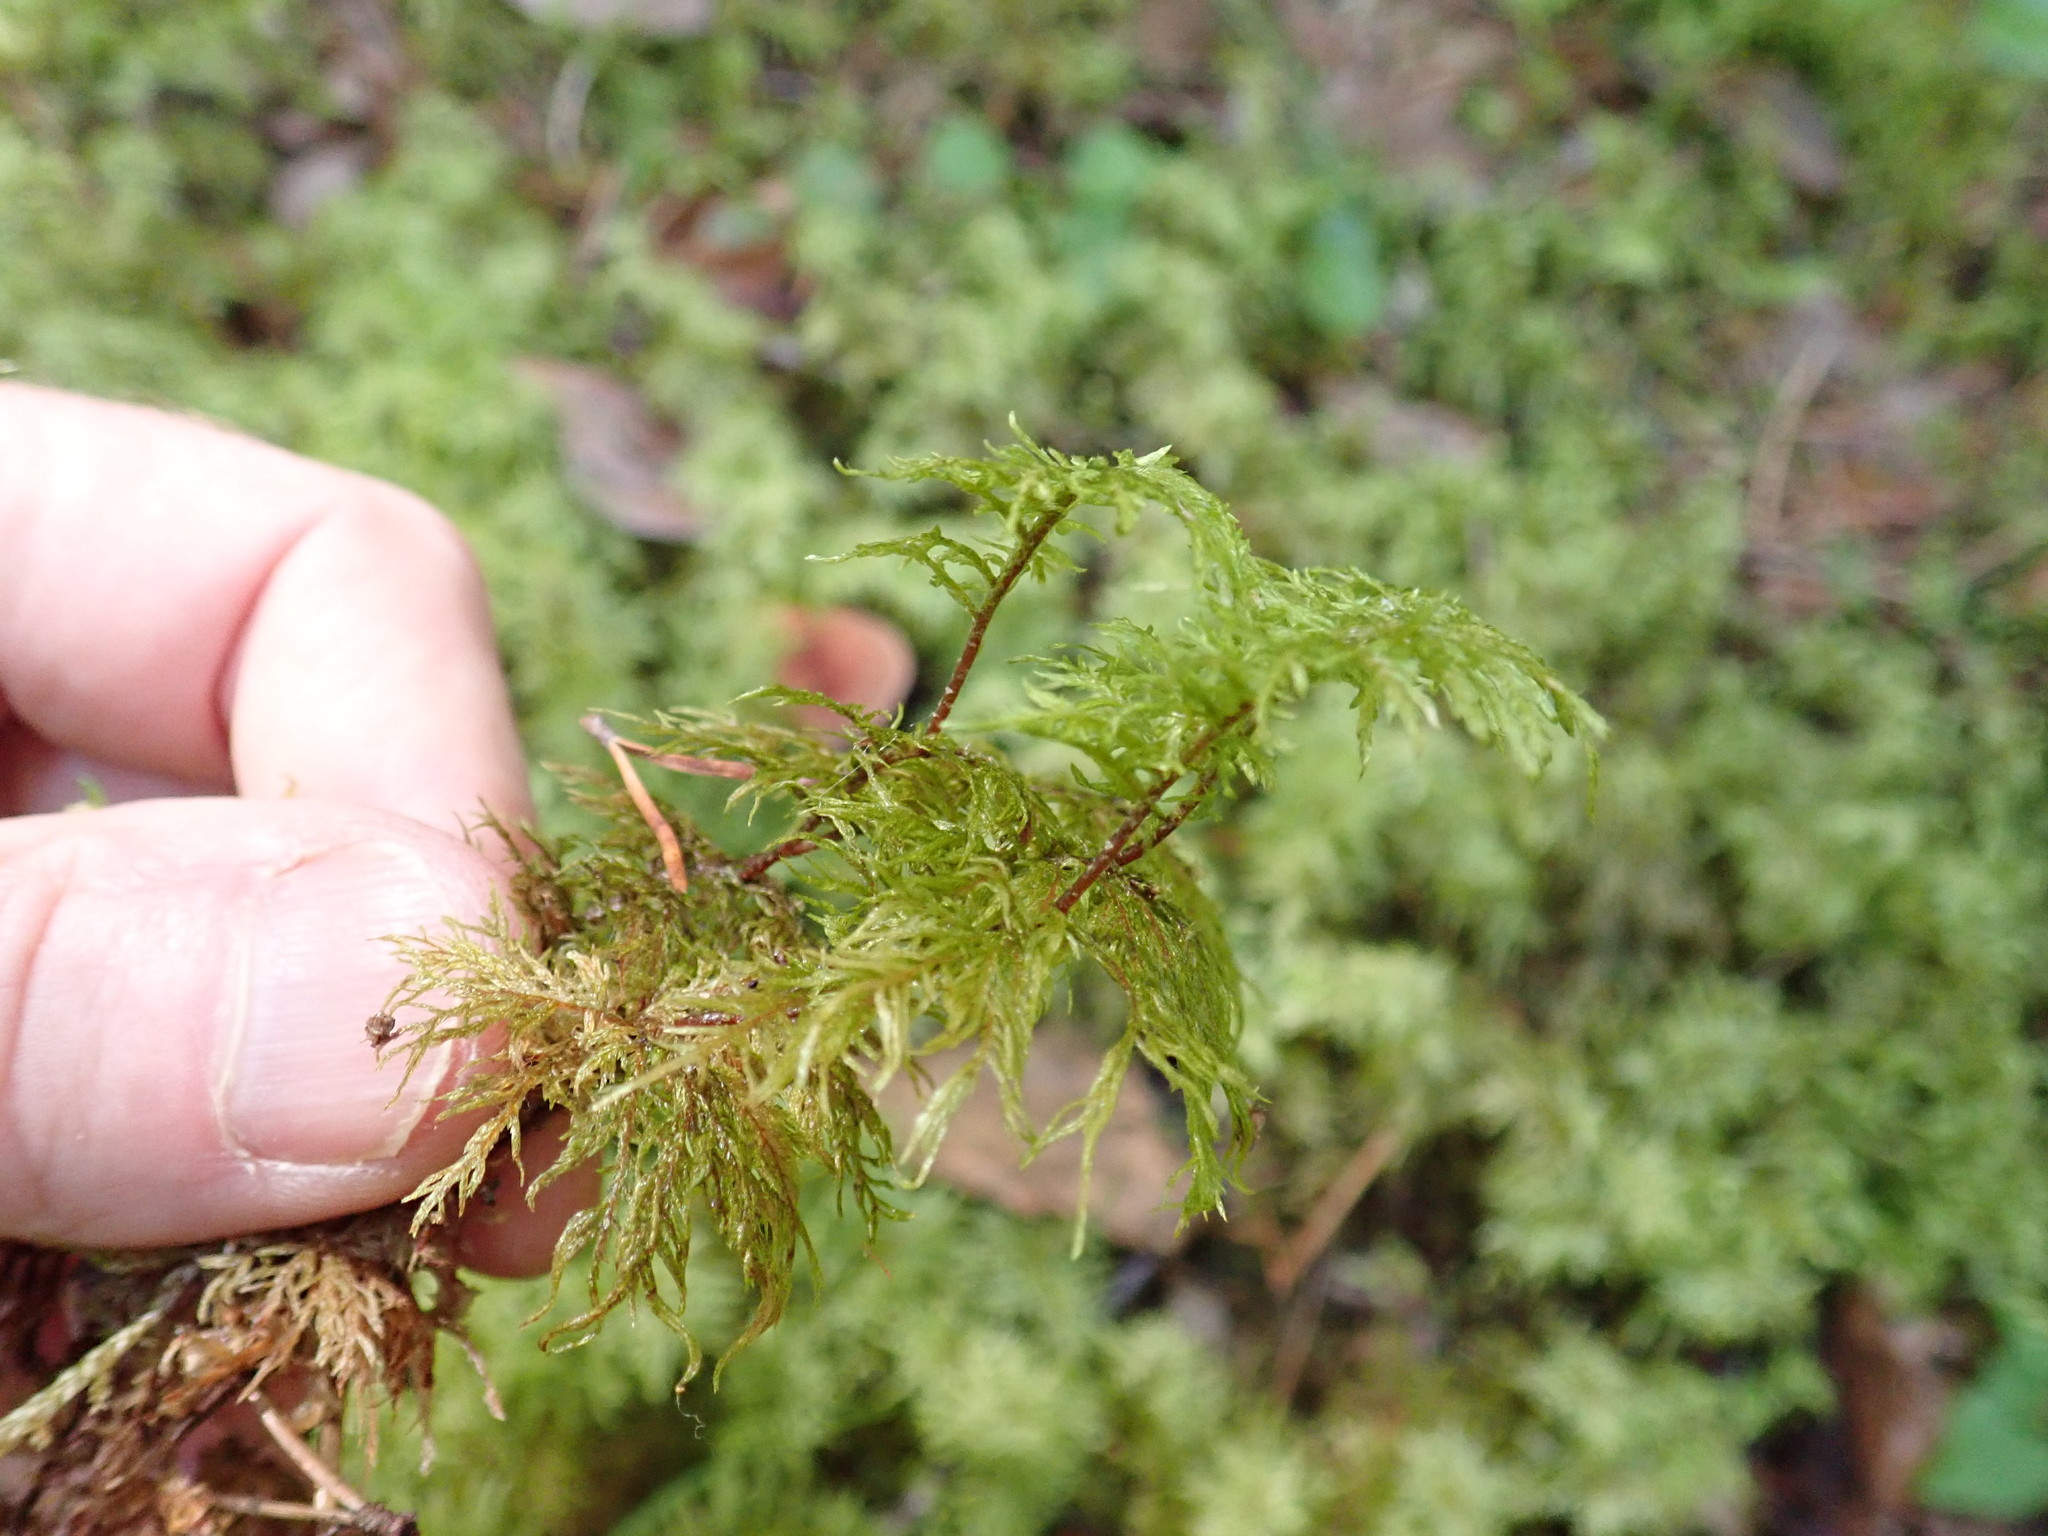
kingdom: Plantae
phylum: Bryophyta
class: Bryopsida
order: Hypnales
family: Hylocomiaceae
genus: Hylocomium
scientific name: Hylocomium splendens
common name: Stairstep moss
